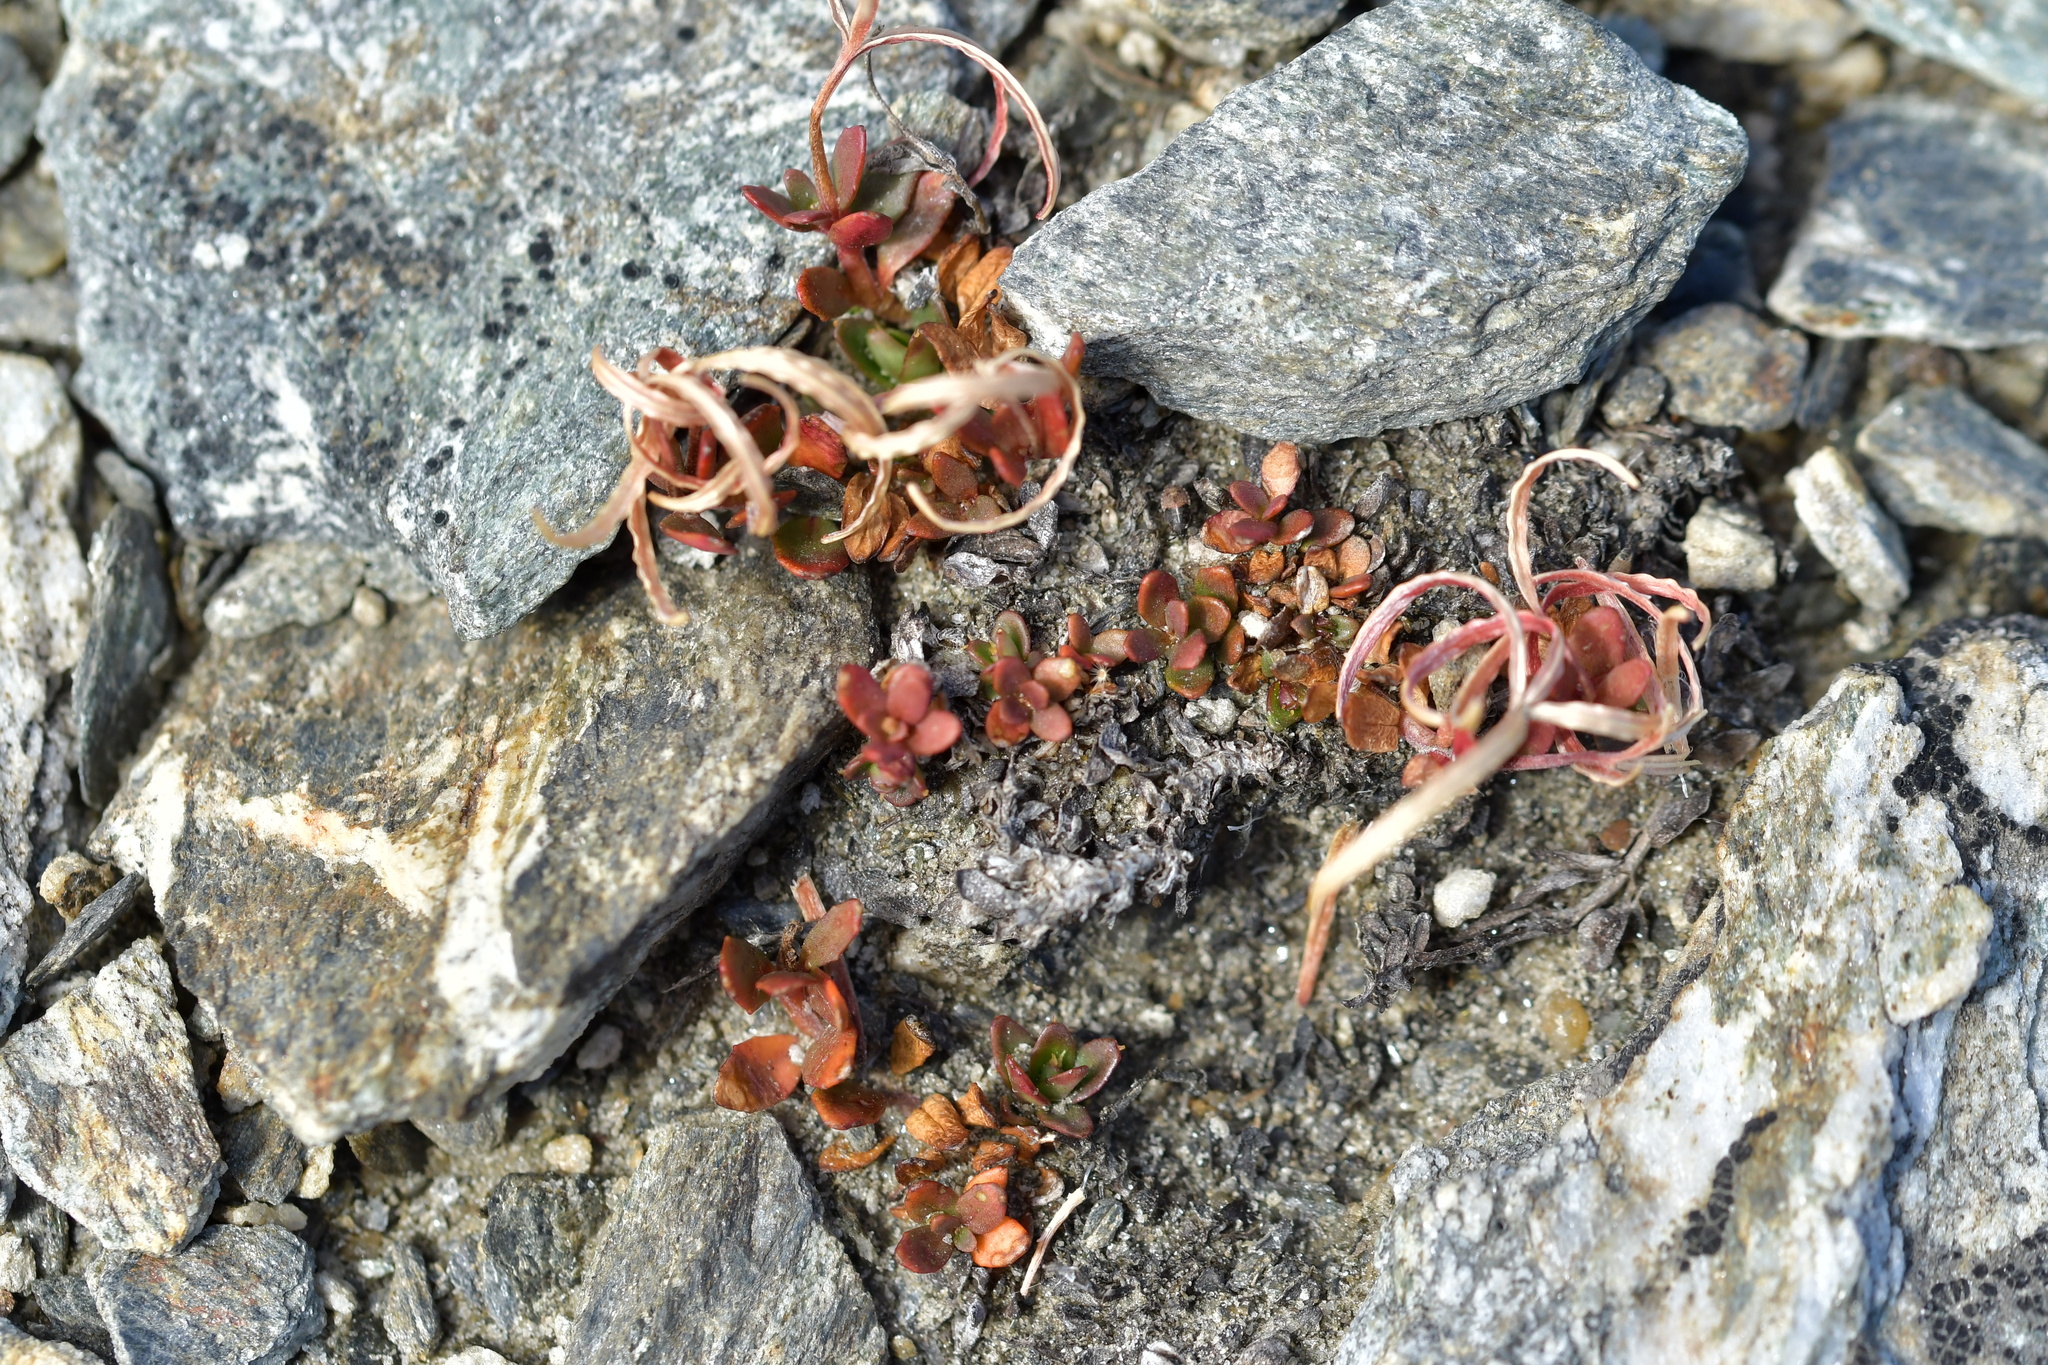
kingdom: Plantae
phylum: Tracheophyta
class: Magnoliopsida
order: Myrtales
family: Onagraceae
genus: Epilobium
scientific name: Epilobium tasmanicum
